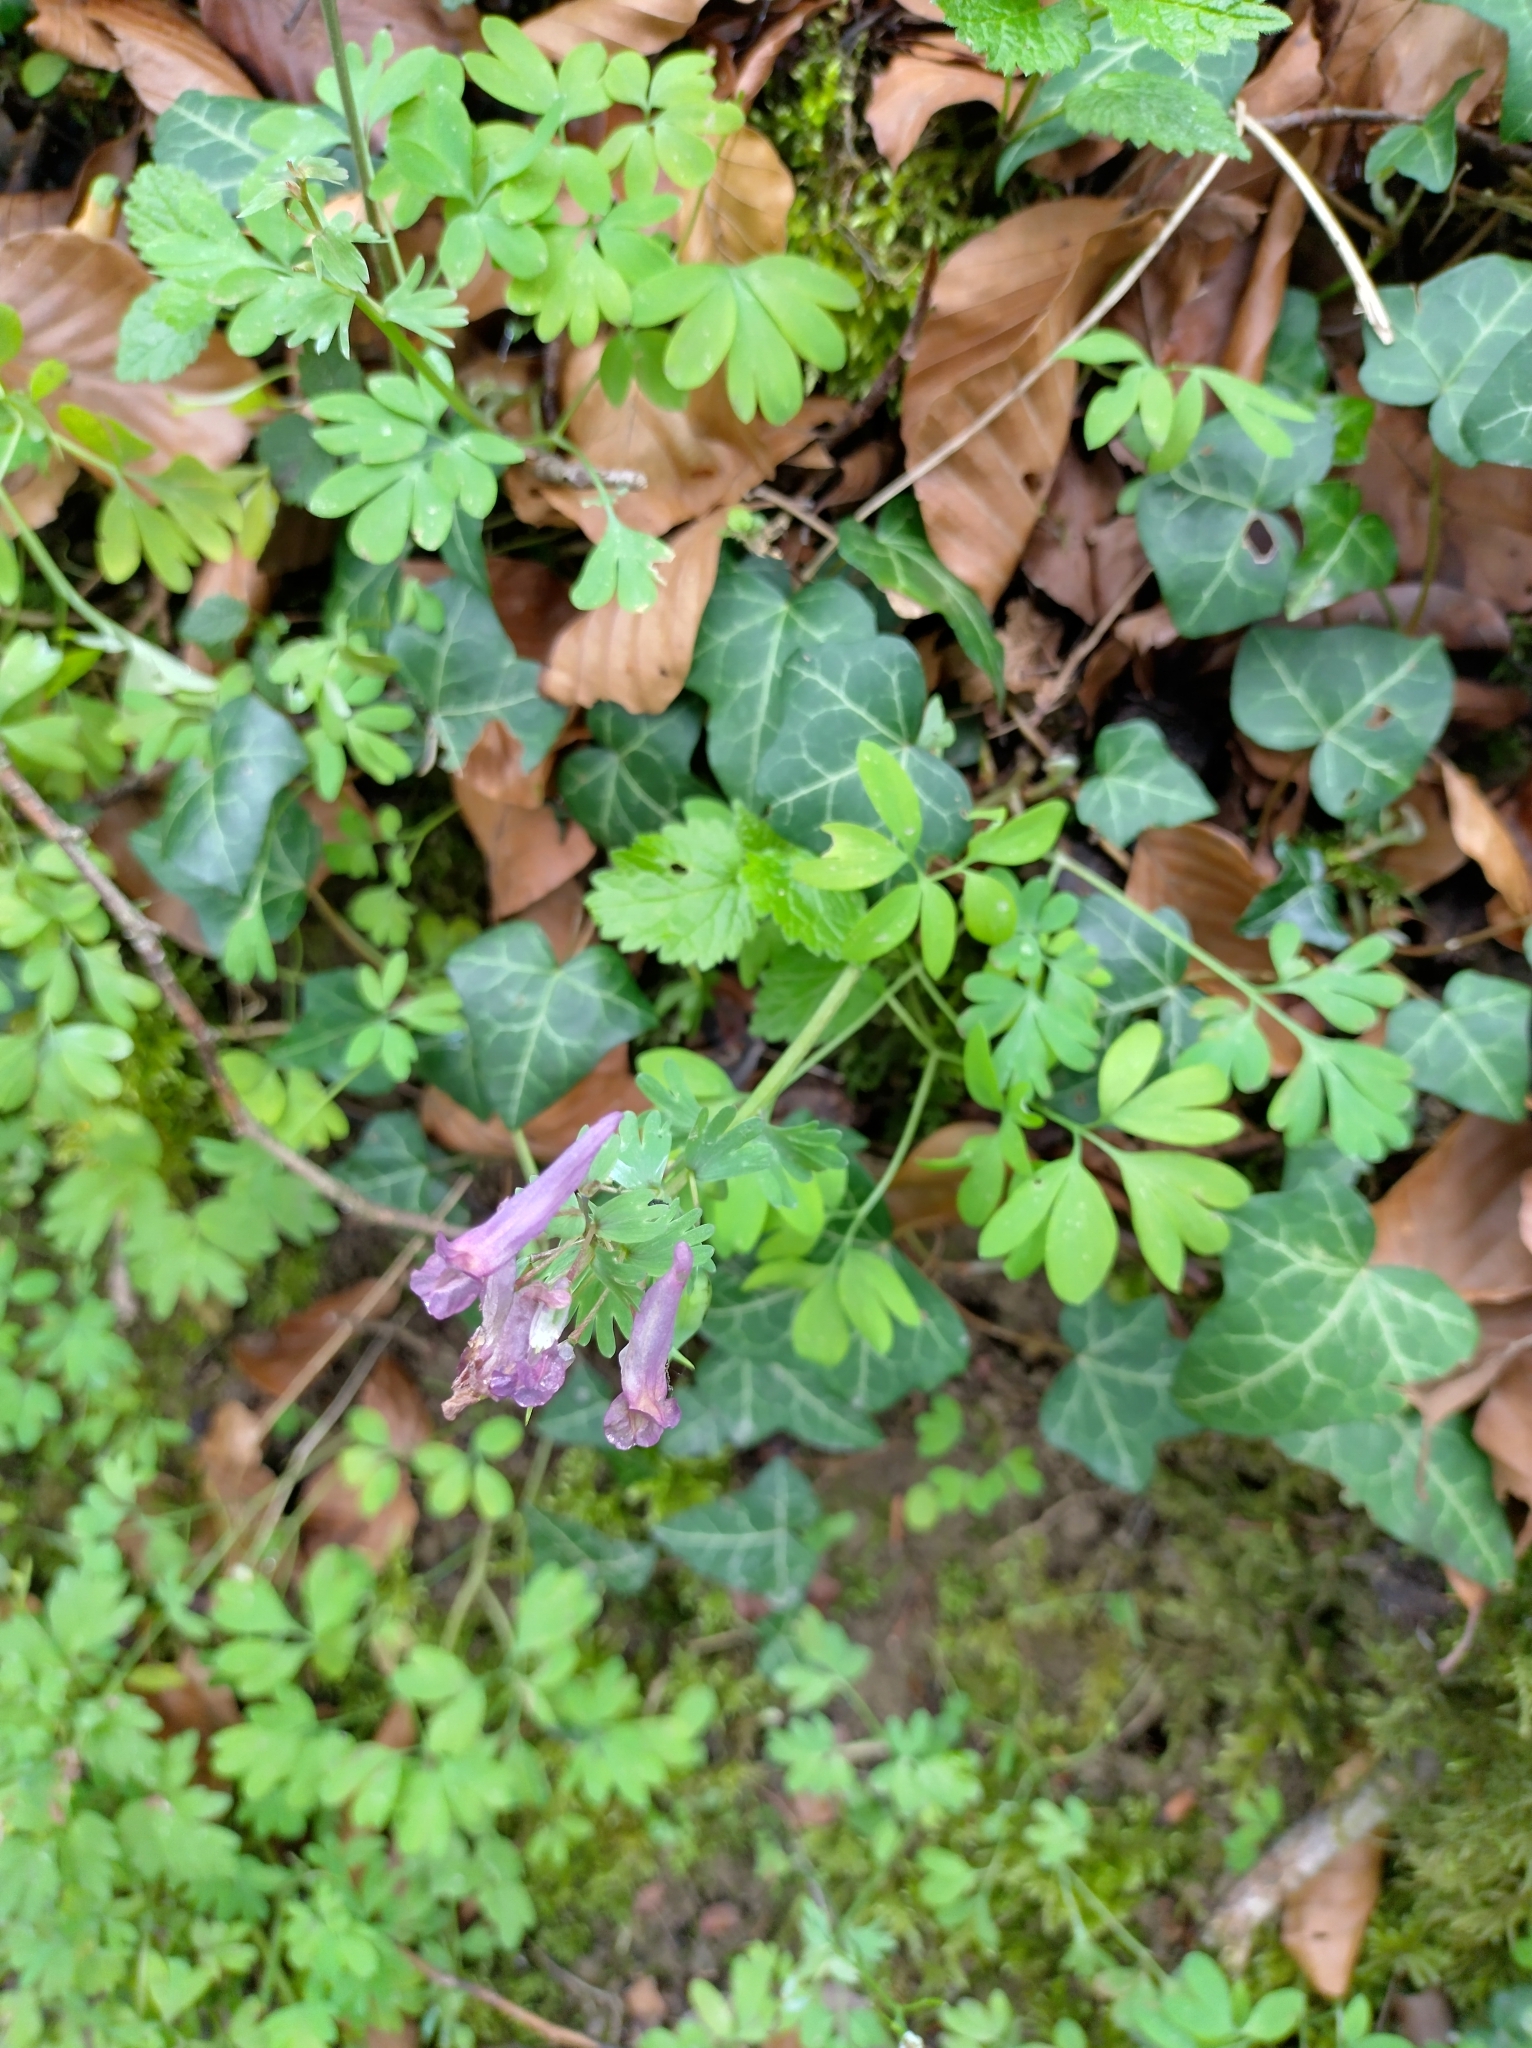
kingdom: Plantae
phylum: Tracheophyta
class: Magnoliopsida
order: Ranunculales
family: Papaveraceae
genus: Corydalis
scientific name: Corydalis solida
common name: Bird-in-a-bush
